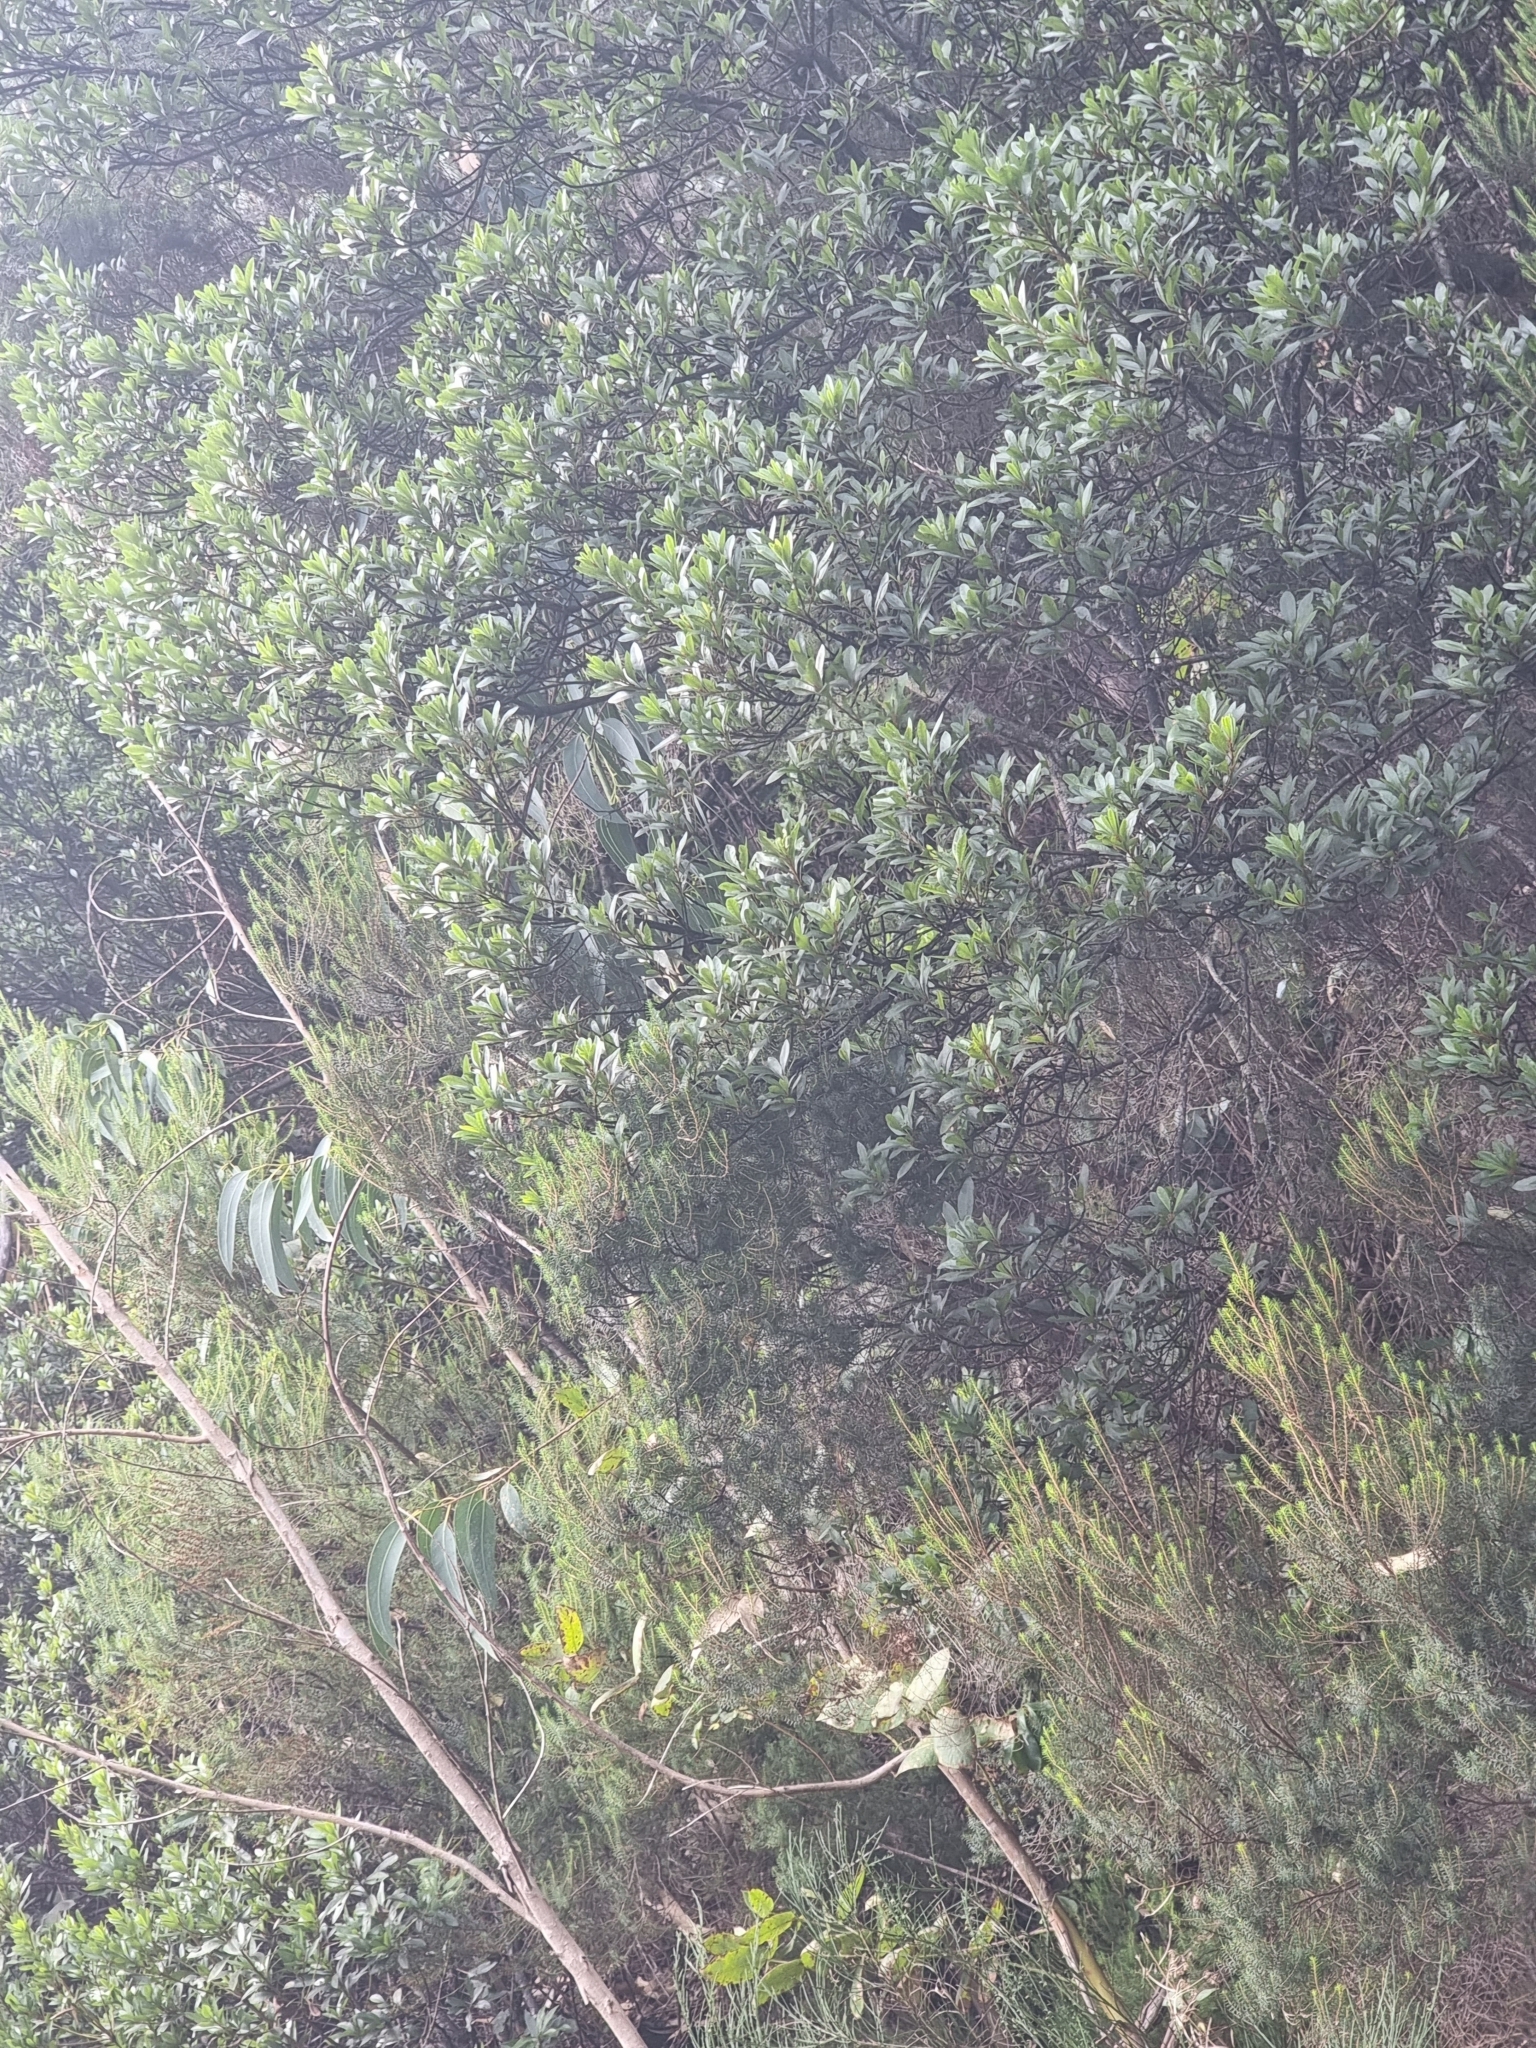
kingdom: Plantae
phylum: Tracheophyta
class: Magnoliopsida
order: Fagales
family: Myricaceae
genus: Morella
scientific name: Morella faya
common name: Firetree
